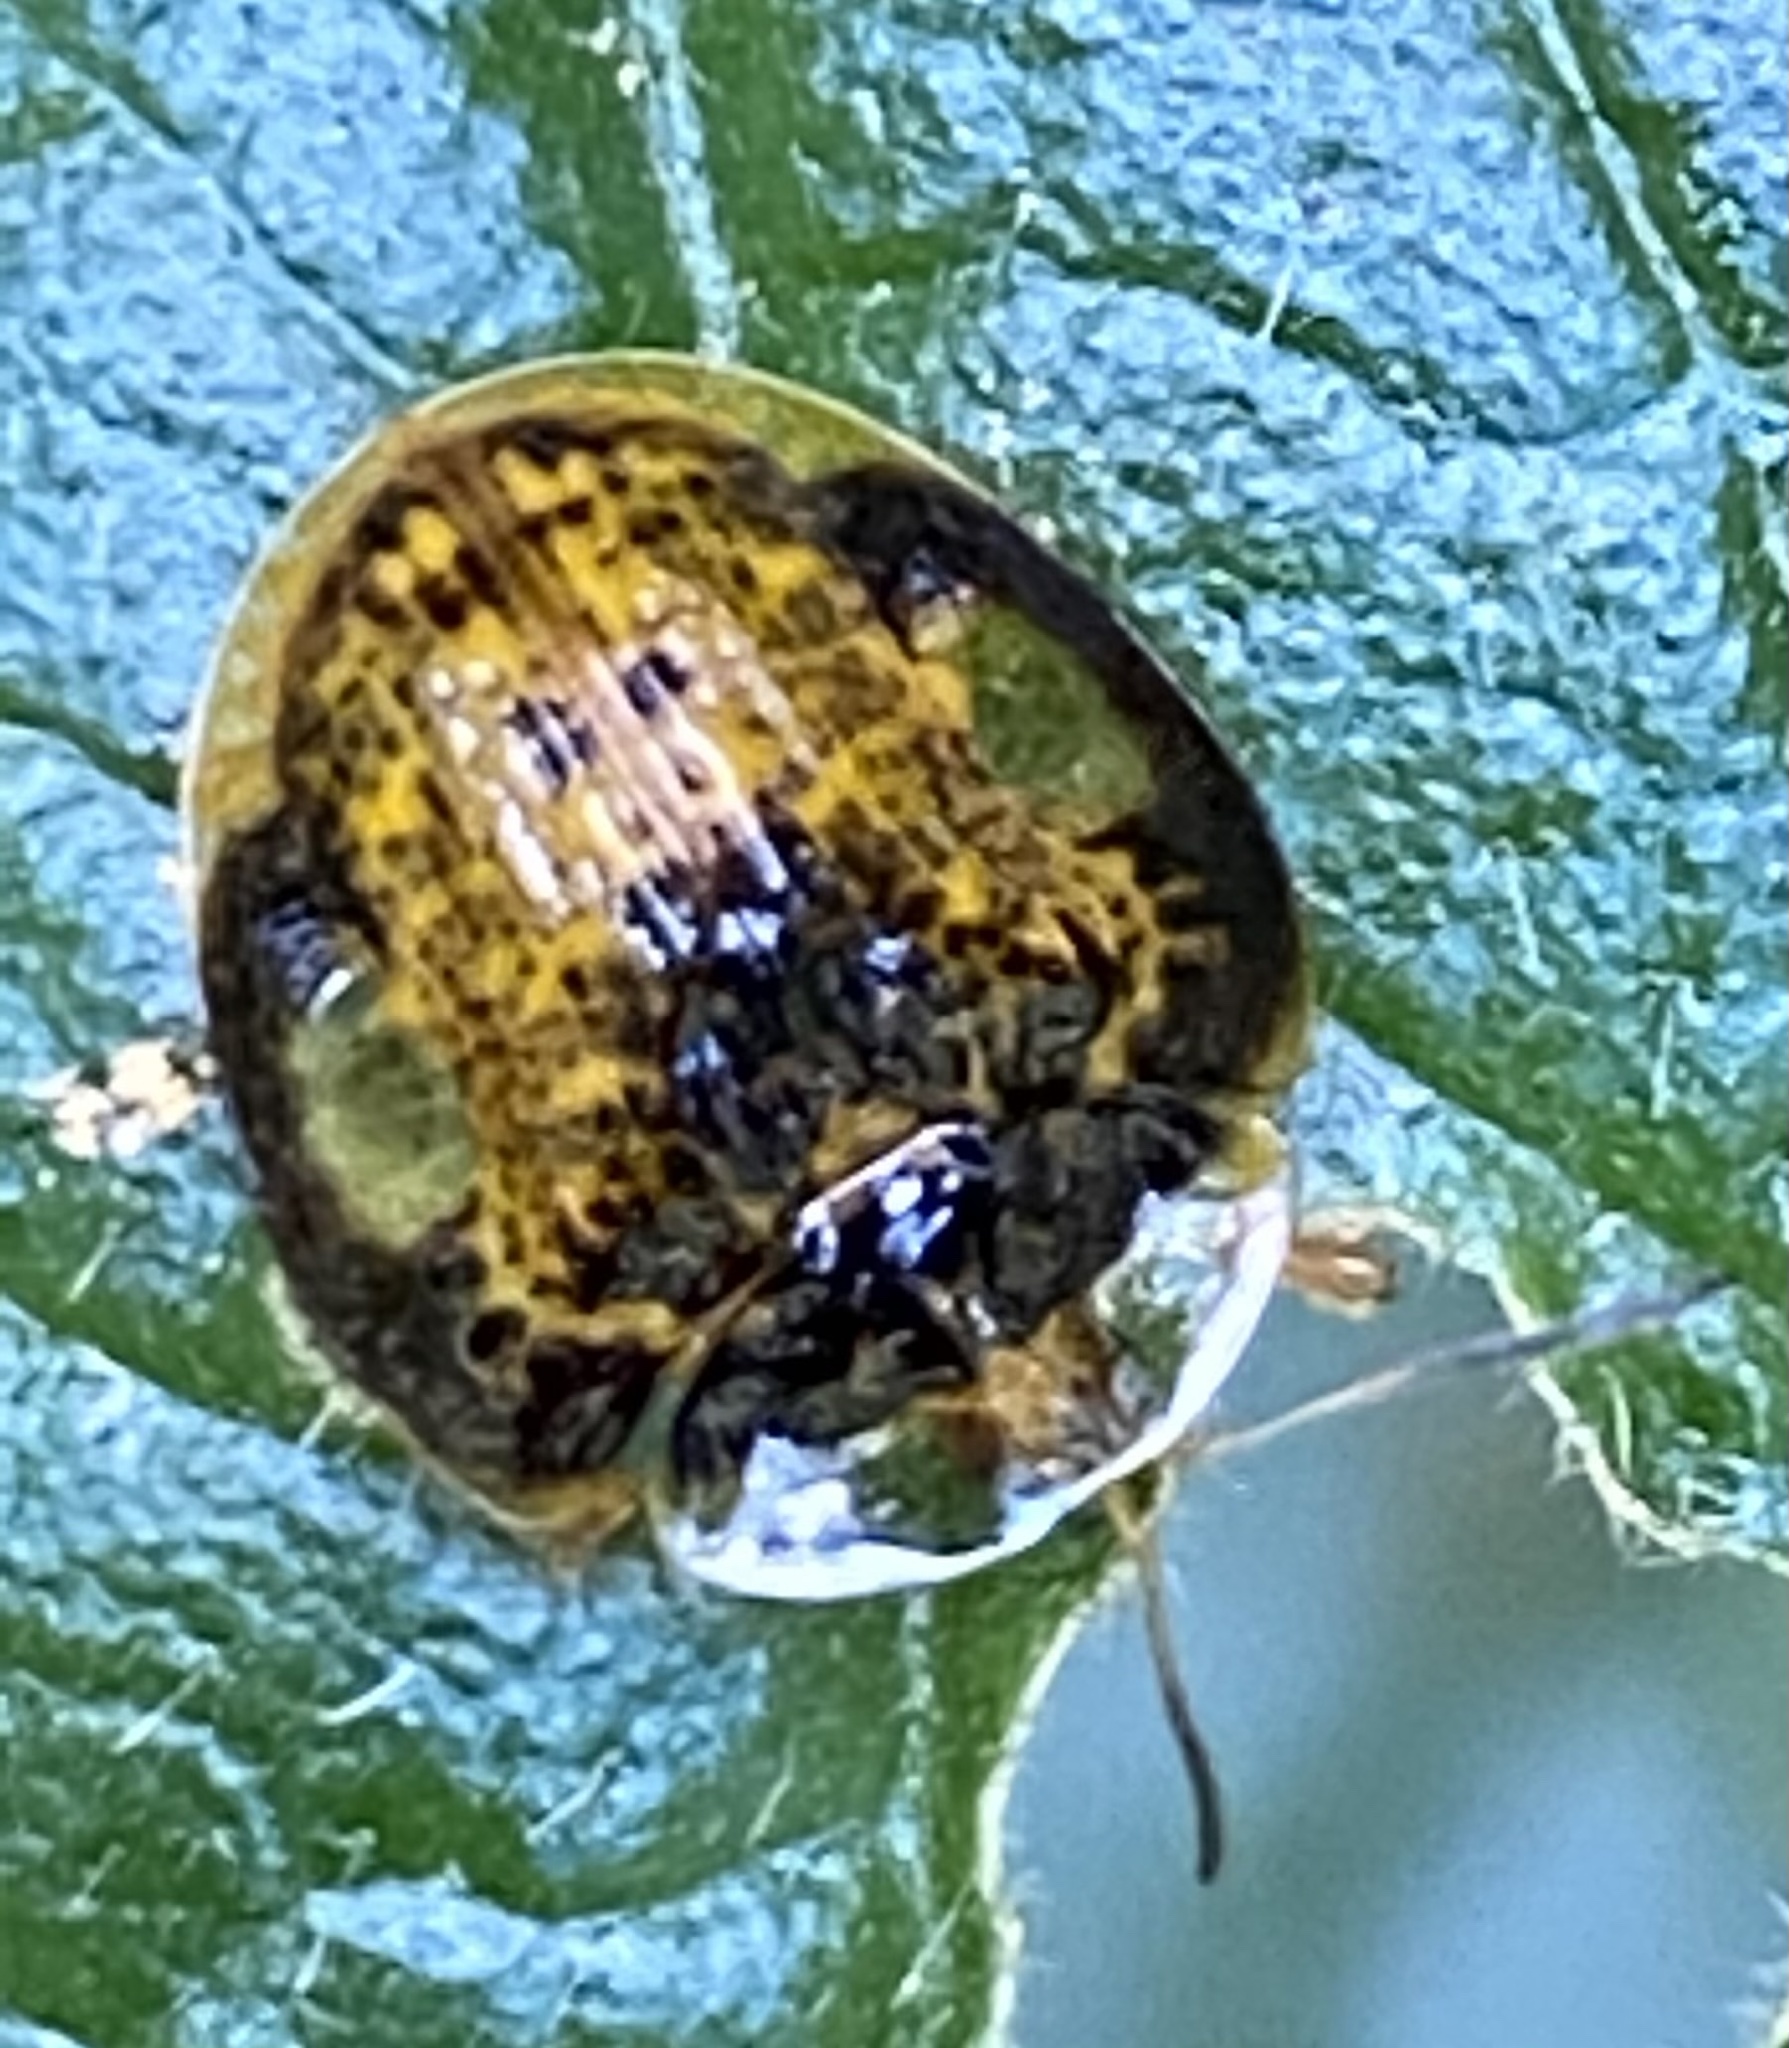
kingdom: Animalia
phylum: Arthropoda
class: Insecta
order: Coleoptera
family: Chrysomelidae
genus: Microctenochira
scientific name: Microctenochira optata
